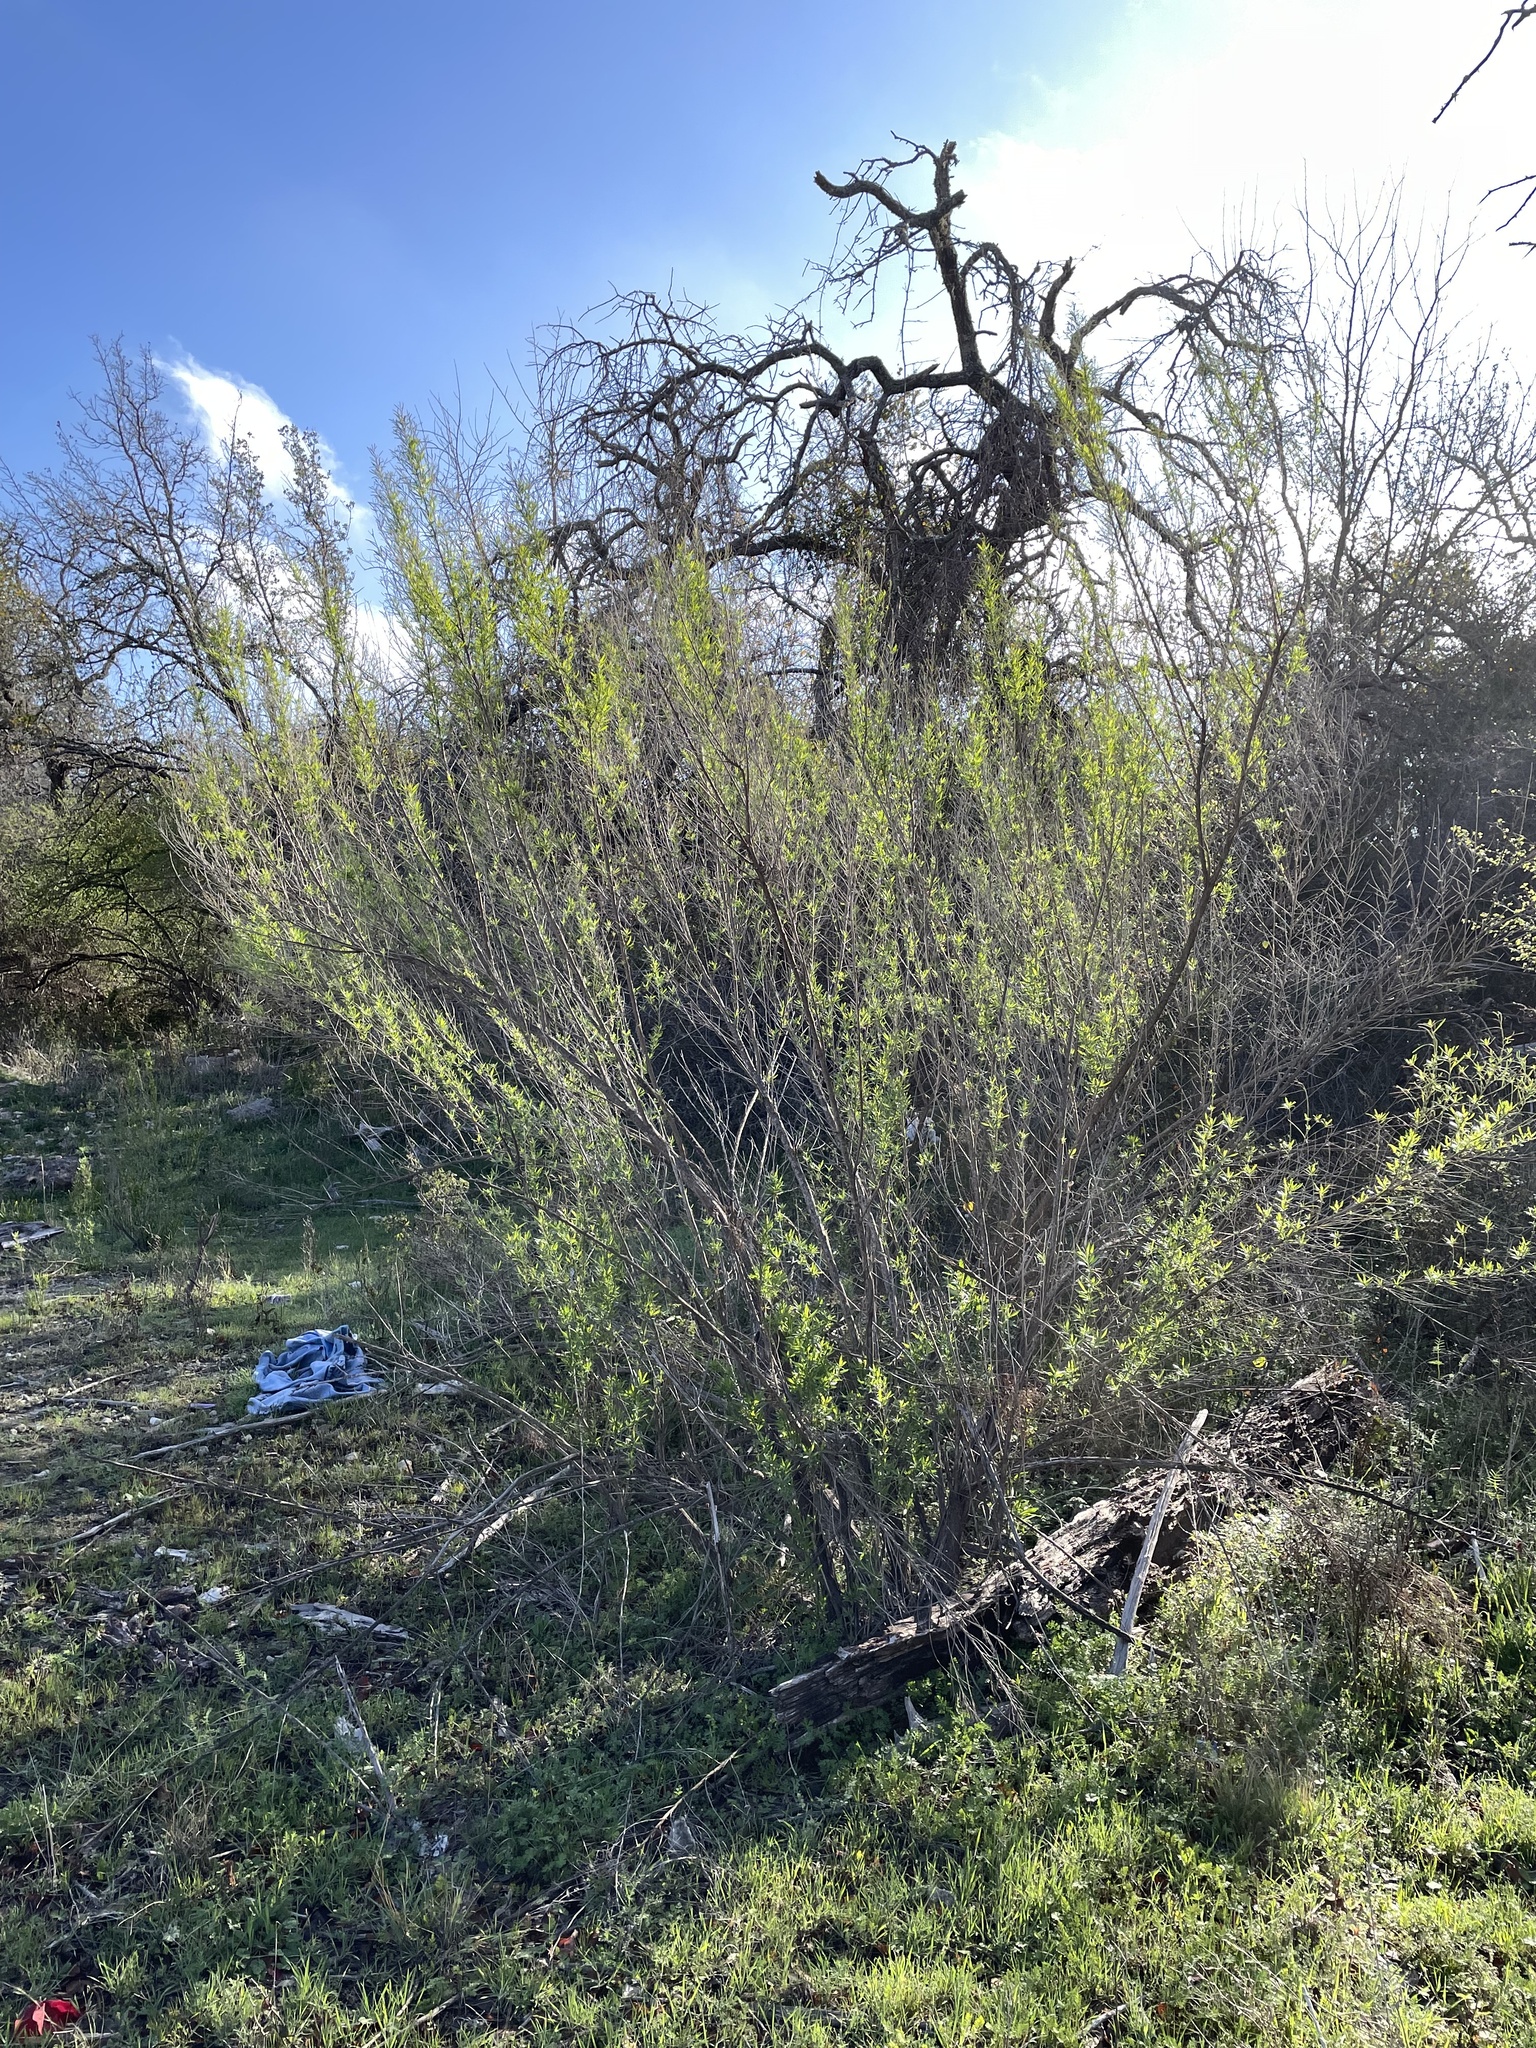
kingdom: Plantae
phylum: Tracheophyta
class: Magnoliopsida
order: Asterales
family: Asteraceae
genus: Baccharis
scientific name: Baccharis neglecta
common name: Roosevelt-weed
